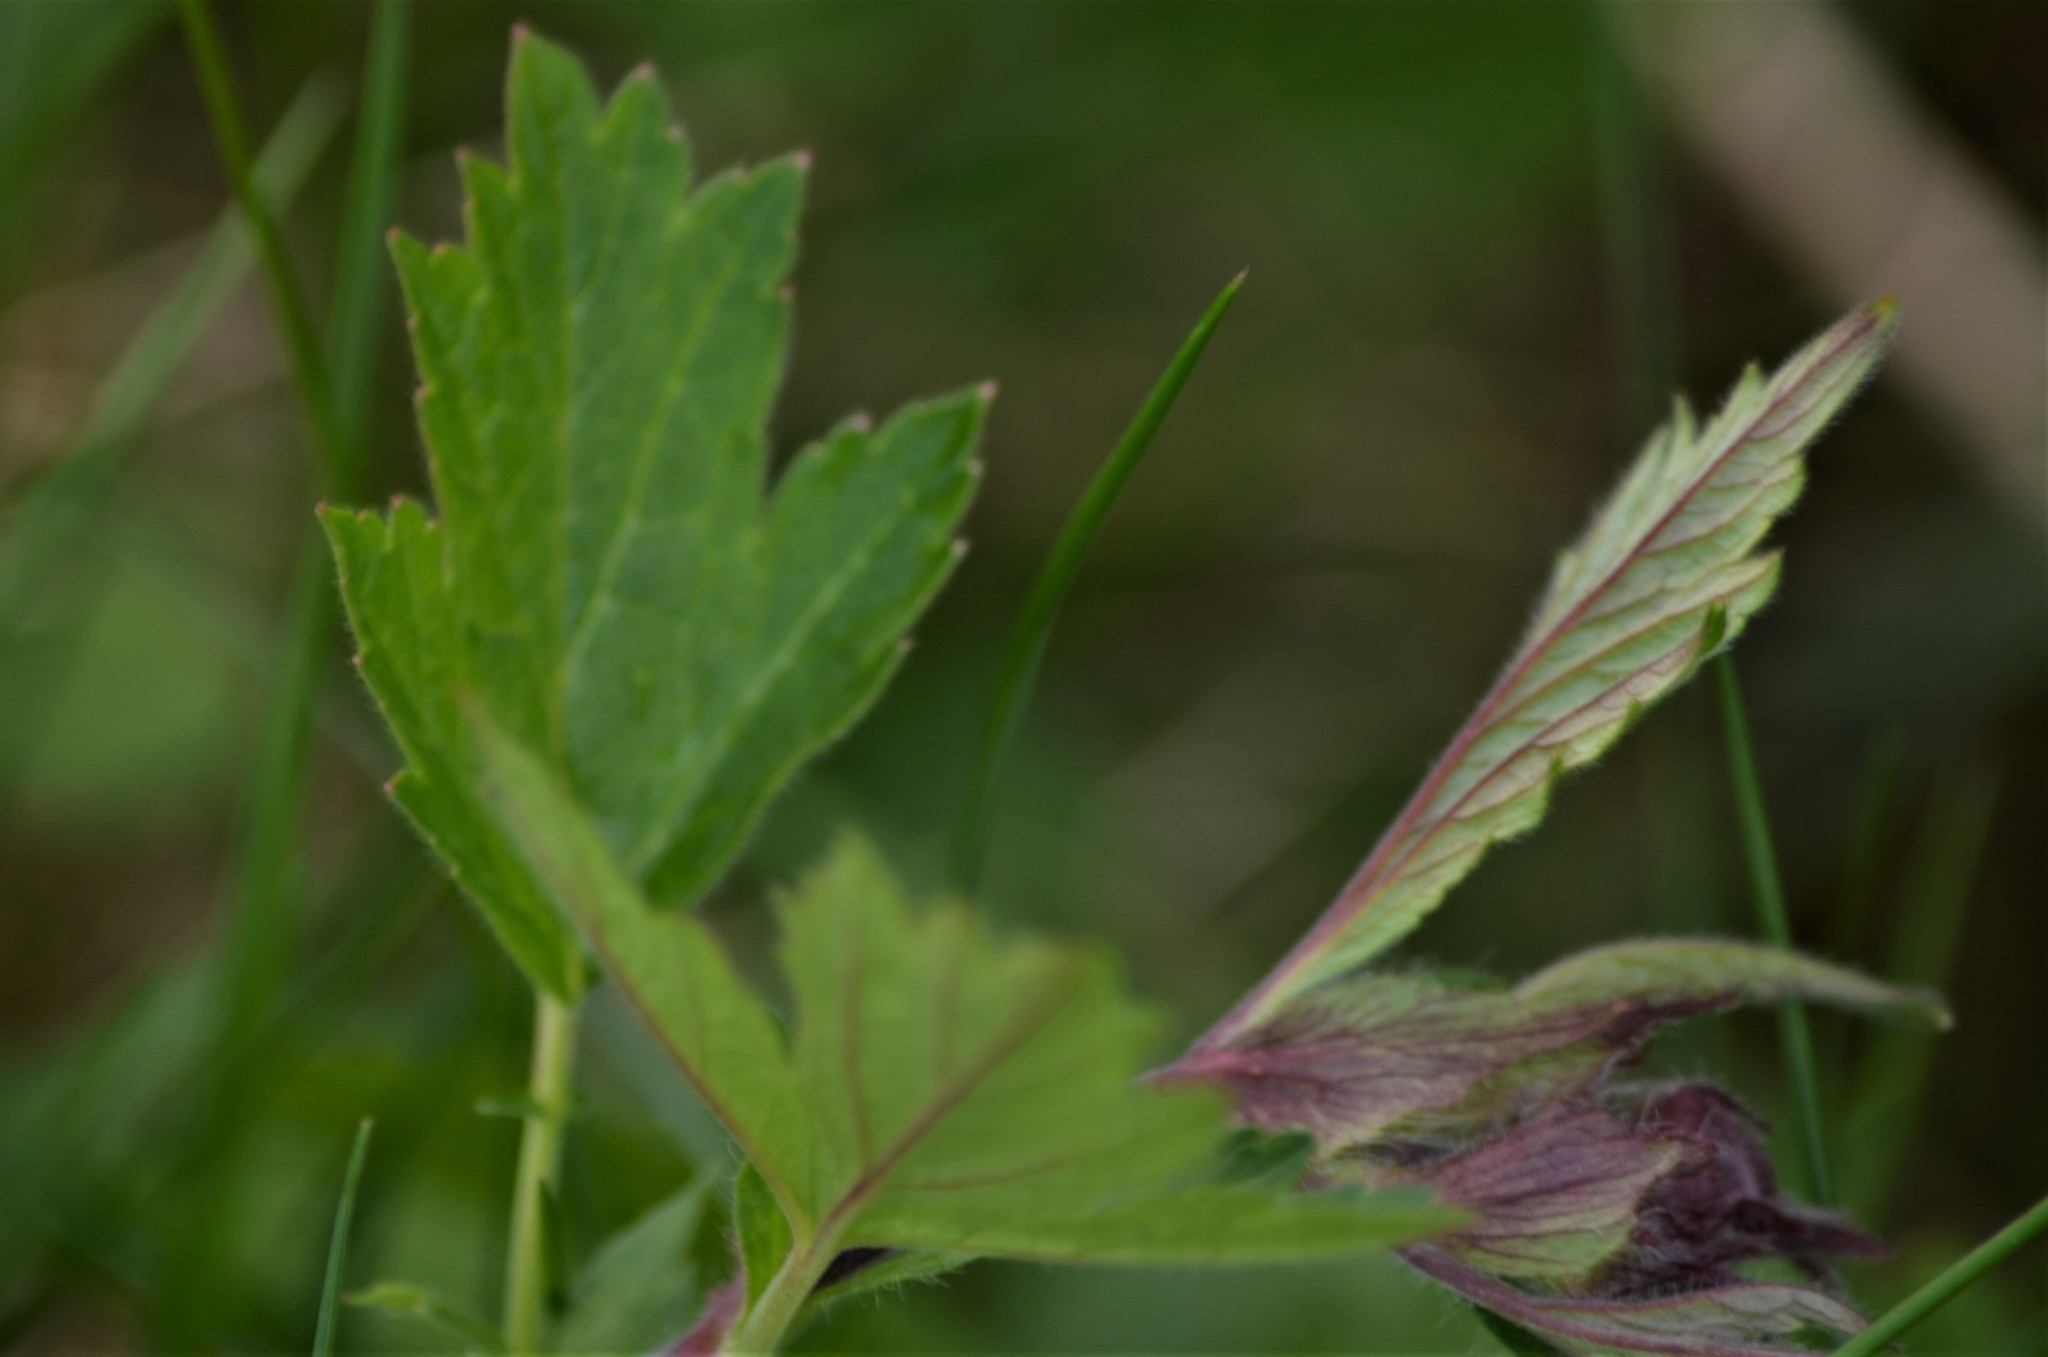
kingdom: Plantae
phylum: Tracheophyta
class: Magnoliopsida
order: Rosales
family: Rosaceae
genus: Geum
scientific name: Geum rivale
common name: Water avens
